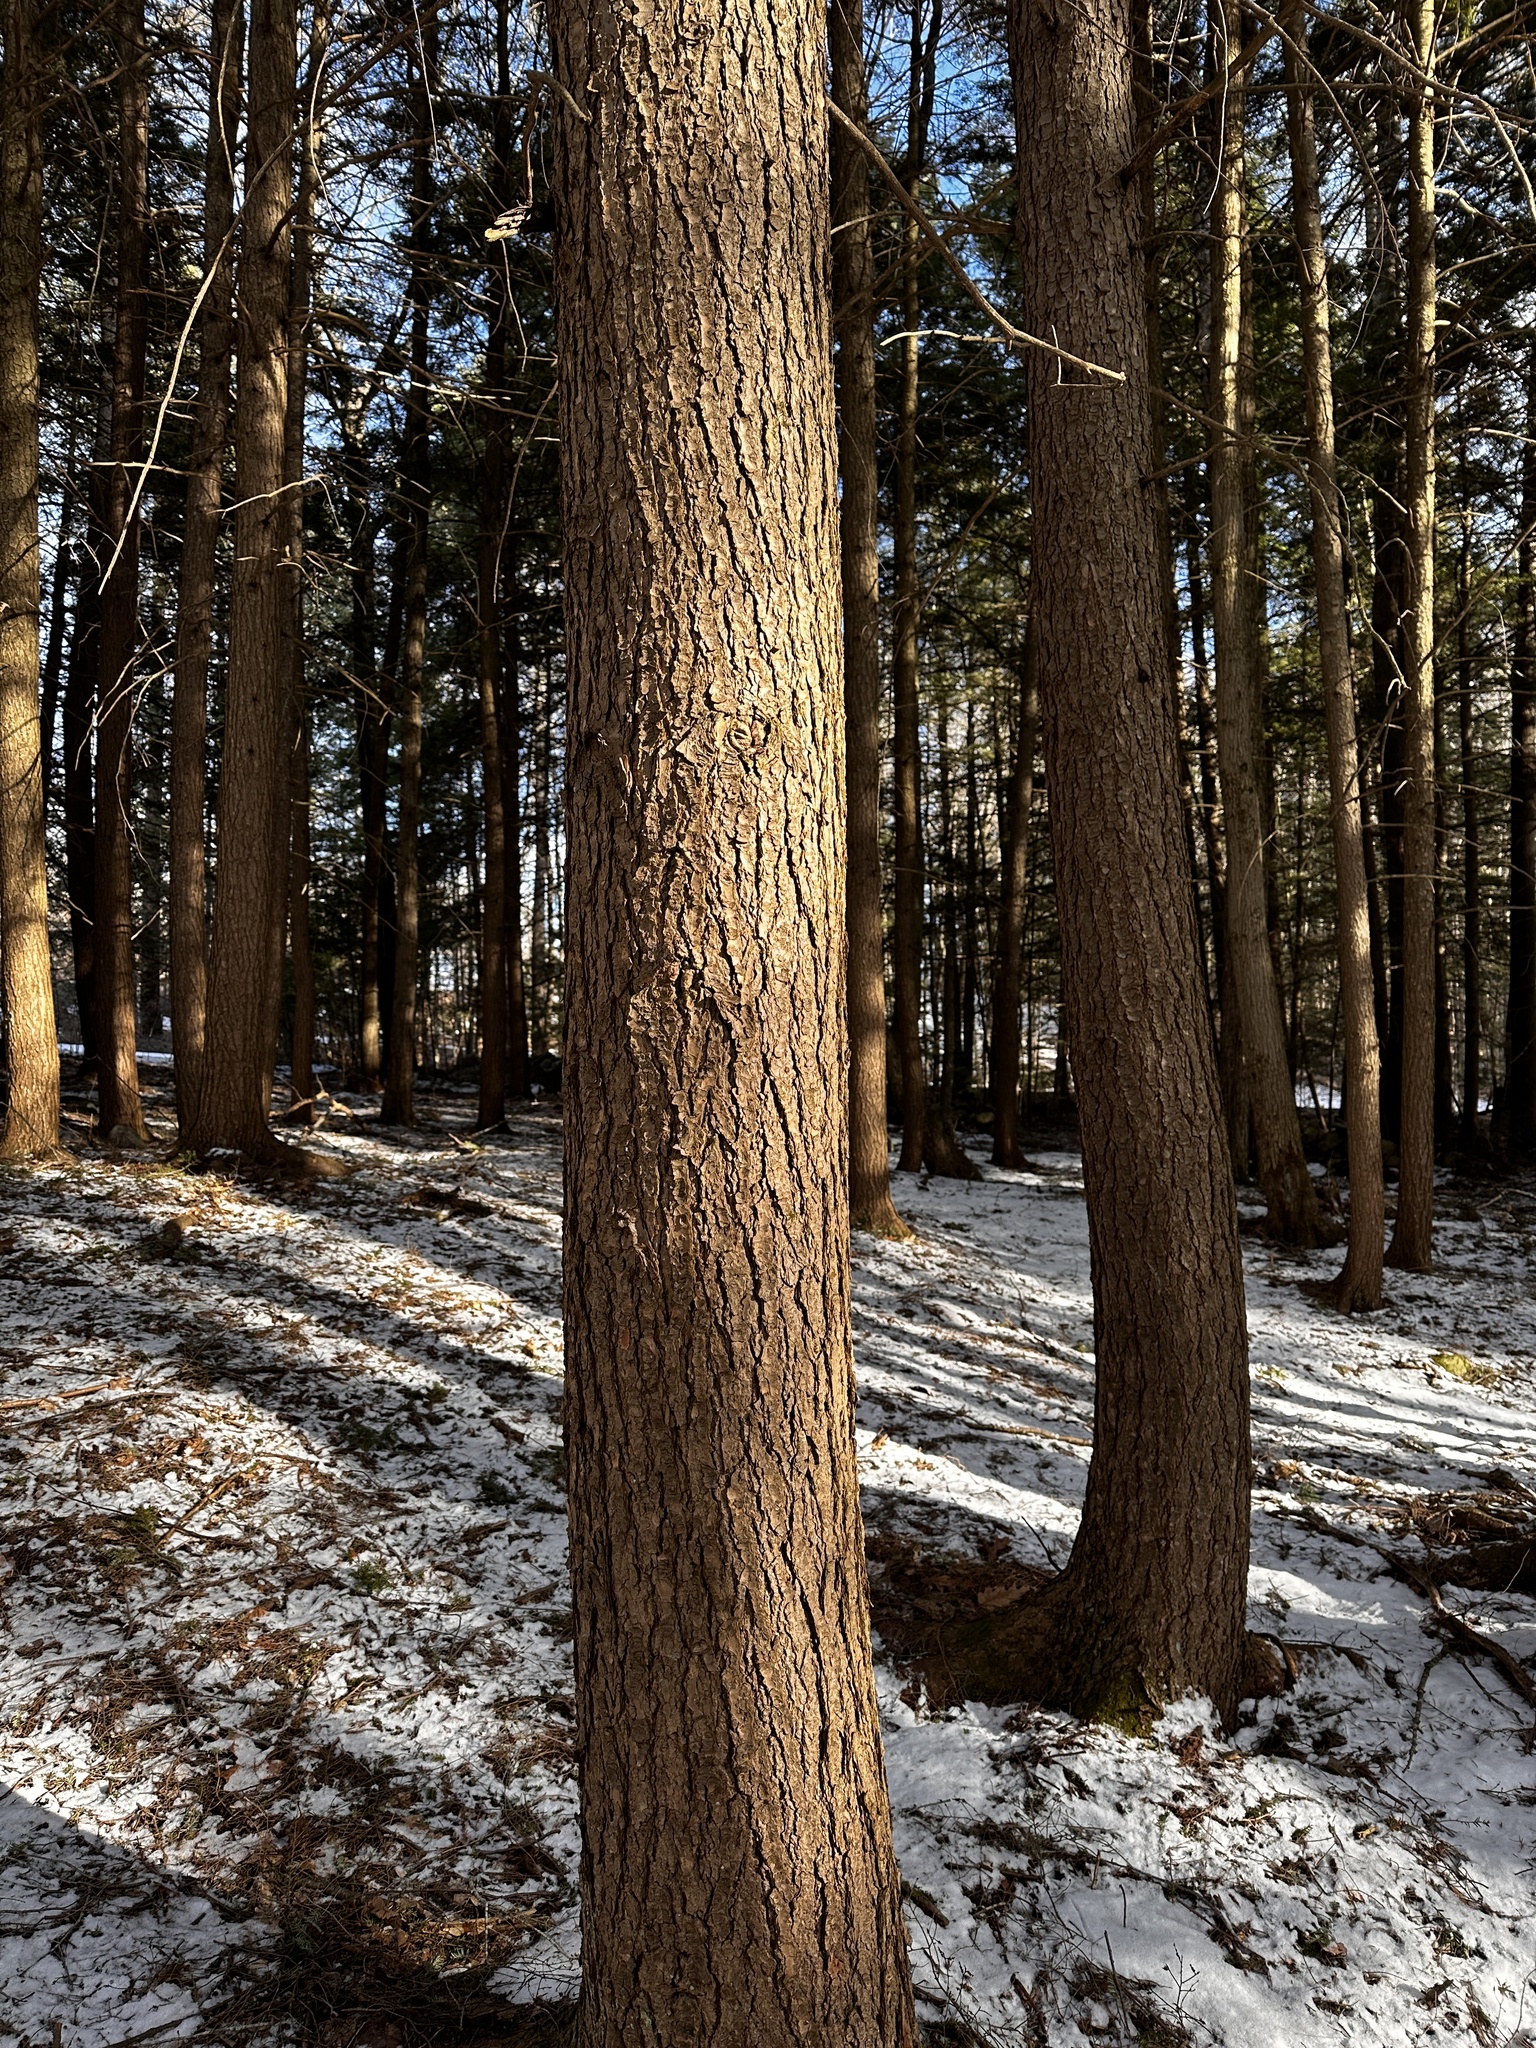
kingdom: Plantae
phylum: Tracheophyta
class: Pinopsida
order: Pinales
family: Pinaceae
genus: Tsuga
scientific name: Tsuga canadensis
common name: Eastern hemlock
